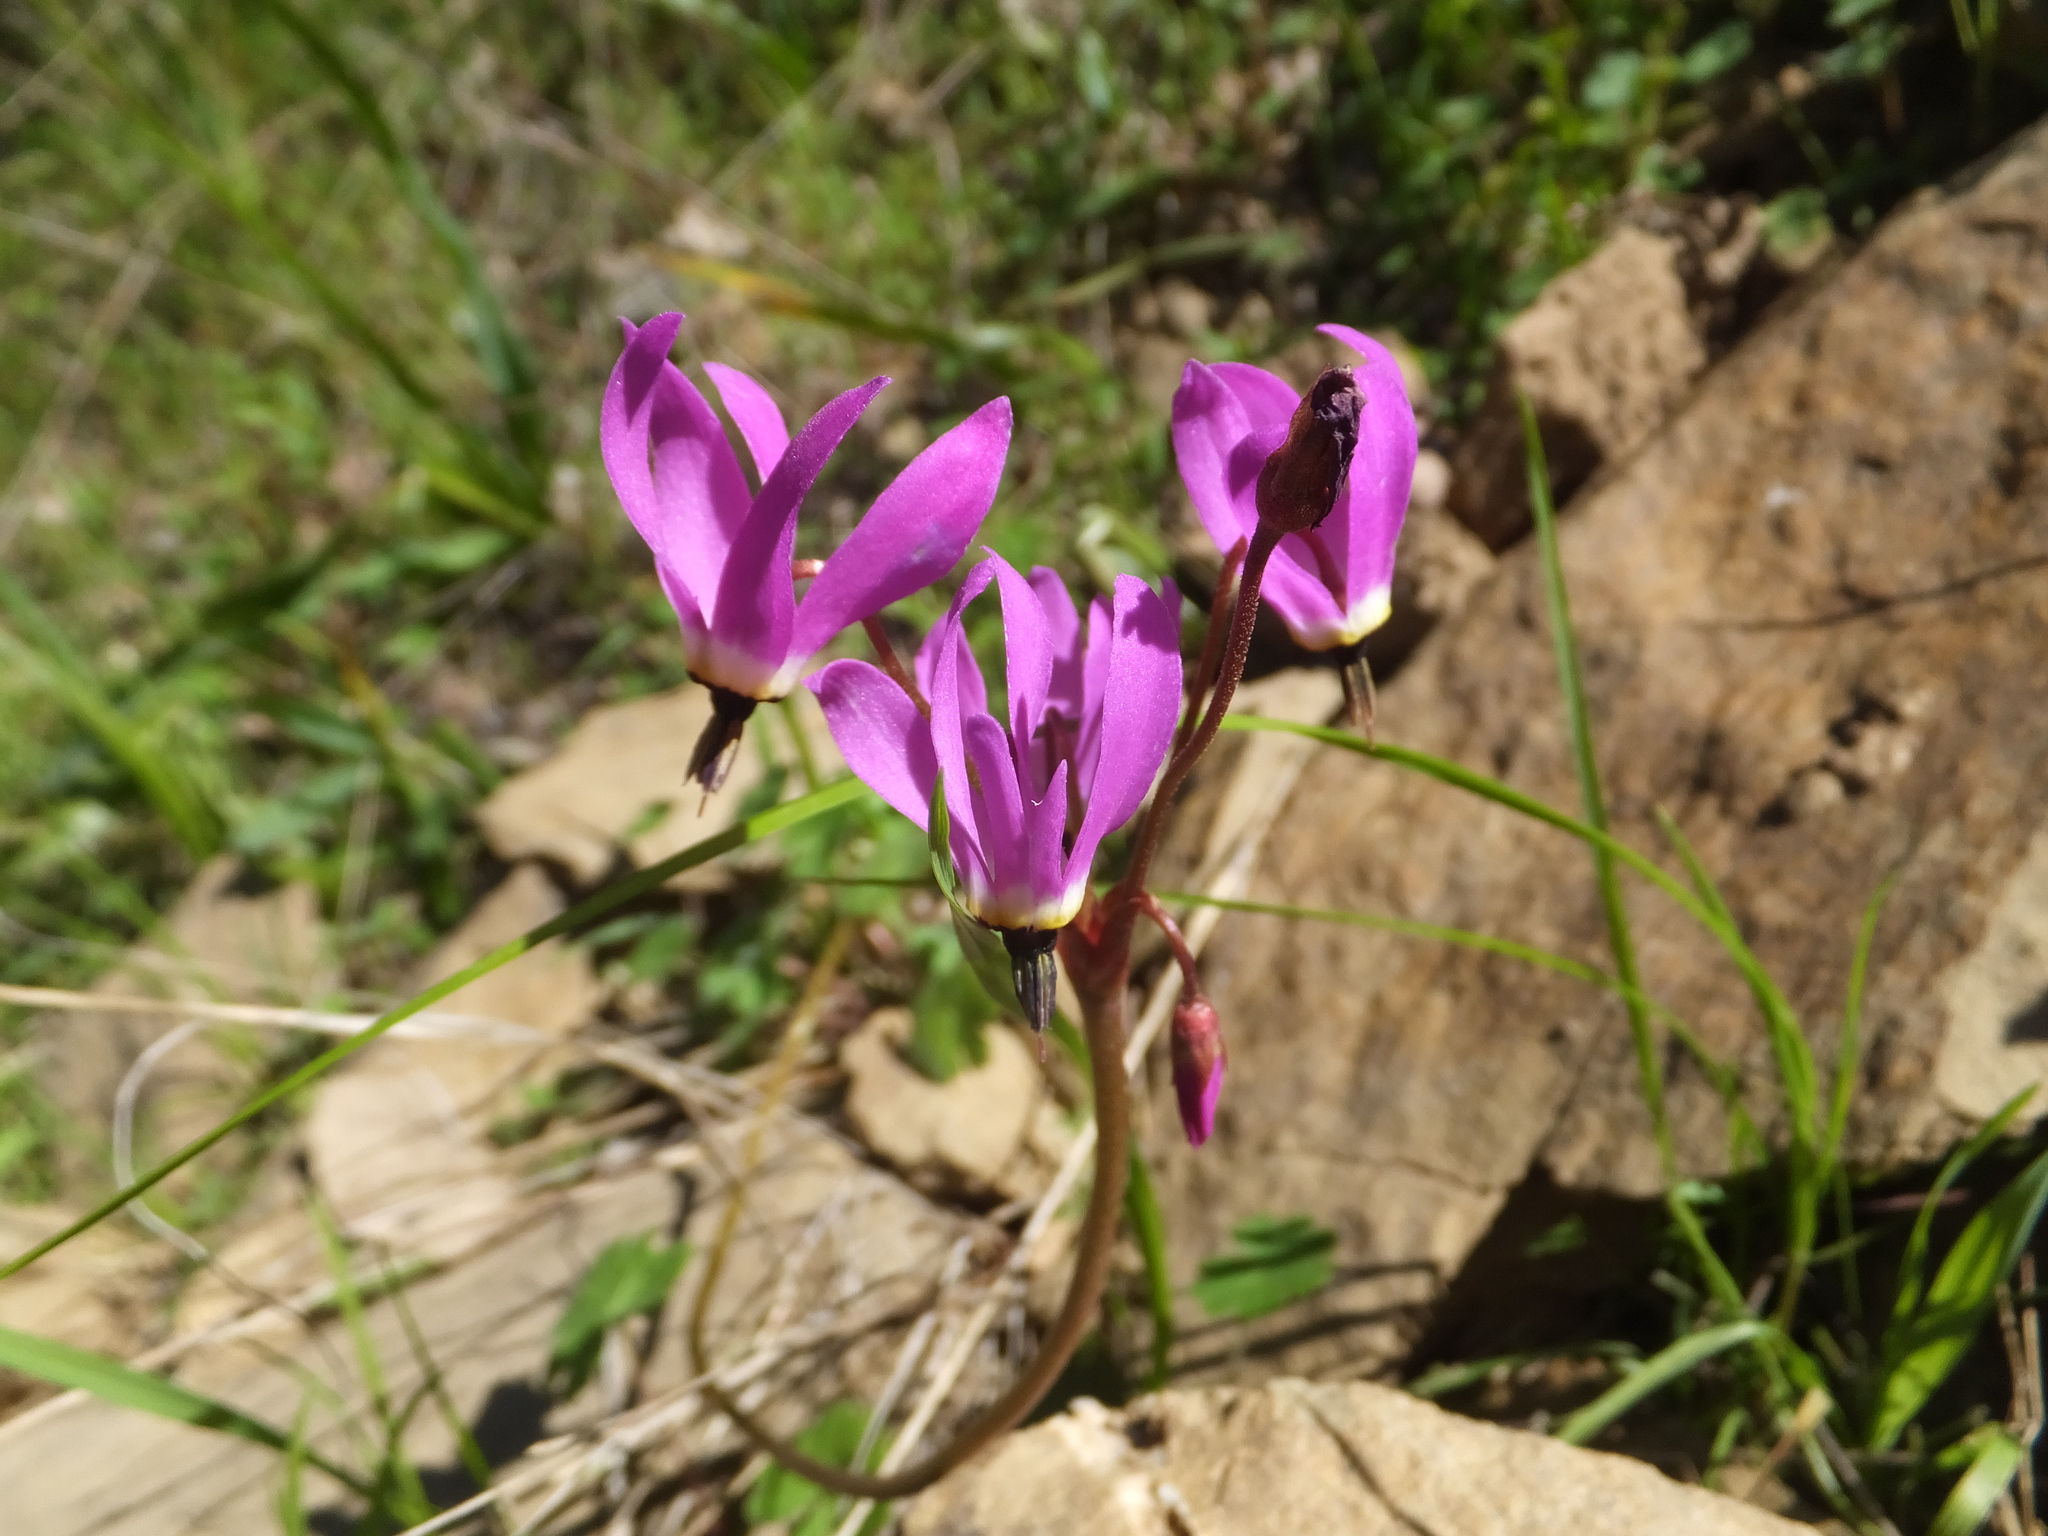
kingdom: Plantae
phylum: Tracheophyta
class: Magnoliopsida
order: Ericales
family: Primulaceae
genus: Dodecatheon
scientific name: Dodecatheon hendersonii
